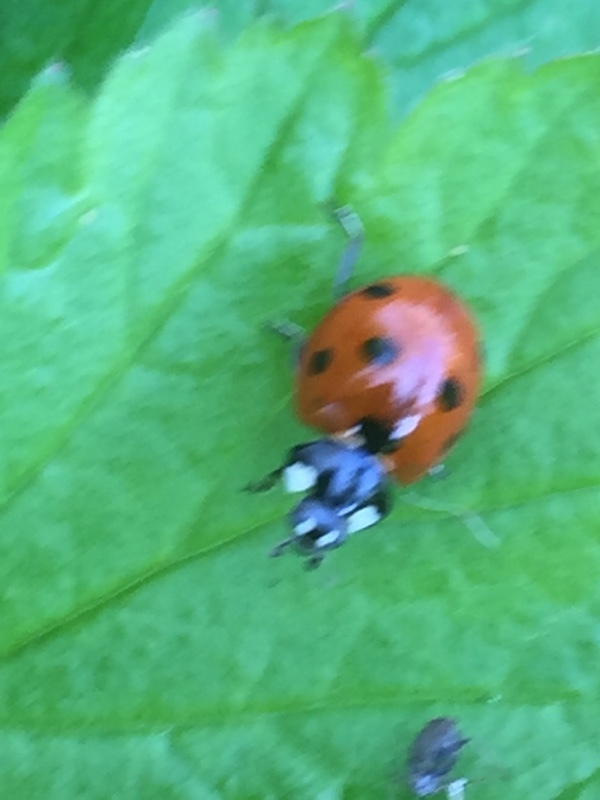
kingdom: Animalia
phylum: Arthropoda
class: Insecta
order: Coleoptera
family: Coccinellidae
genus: Coccinella
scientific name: Coccinella septempunctata
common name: Sevenspotted lady beetle
